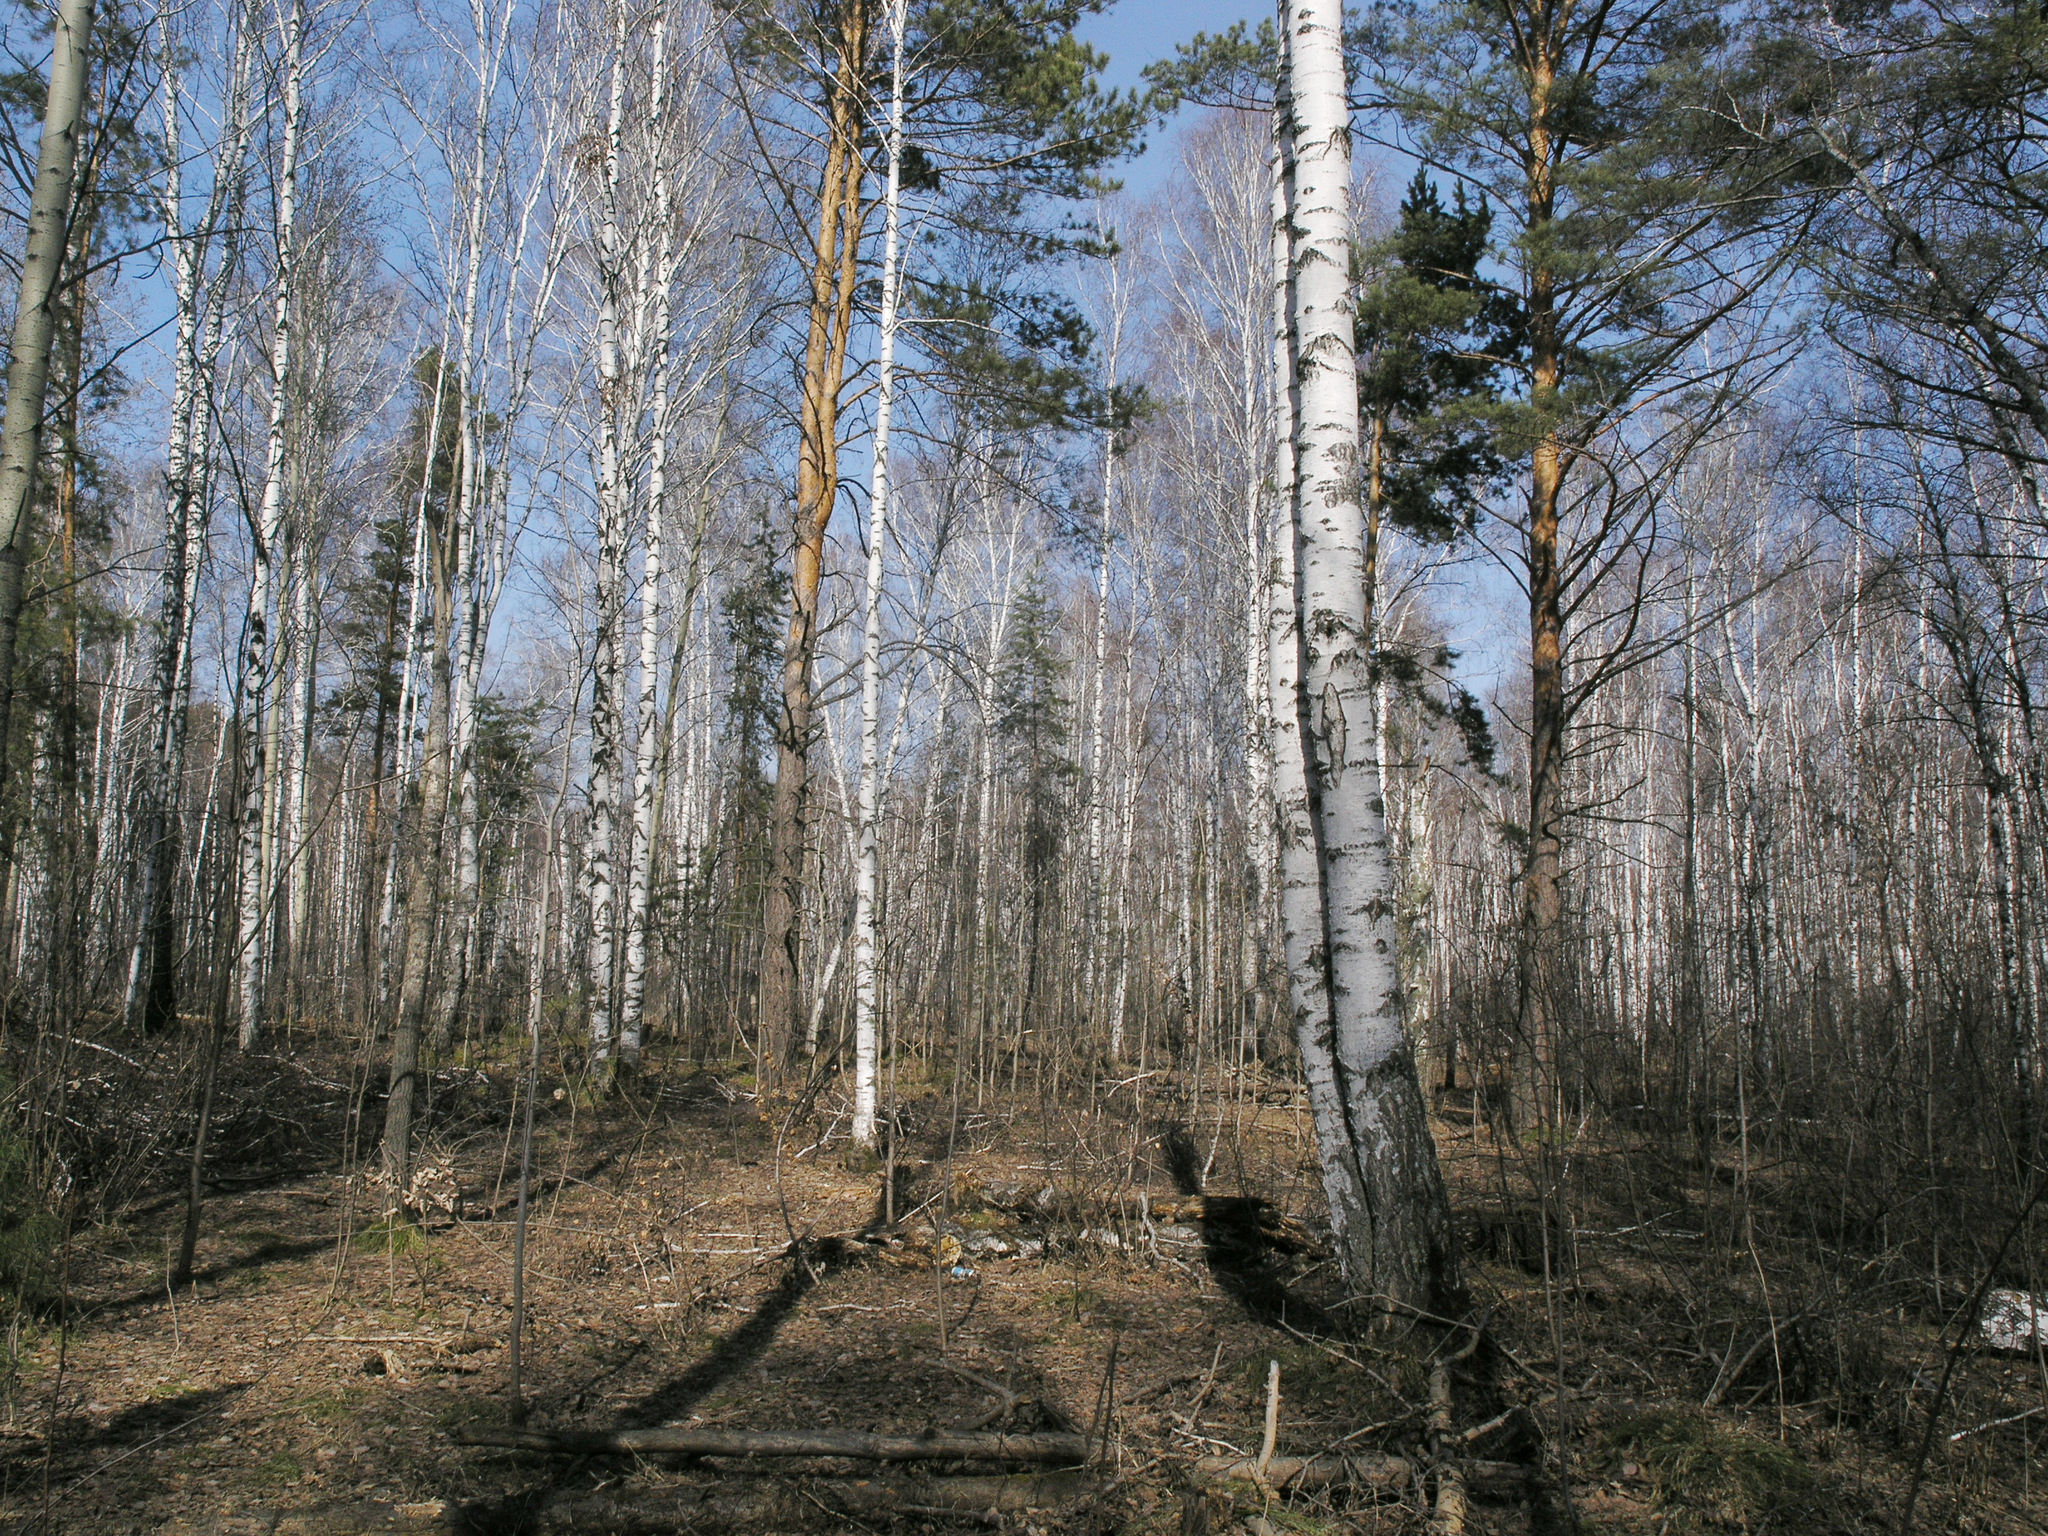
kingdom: Plantae
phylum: Tracheophyta
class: Magnoliopsida
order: Fagales
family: Betulaceae
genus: Betula
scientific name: Betula pendula
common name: Silver birch
